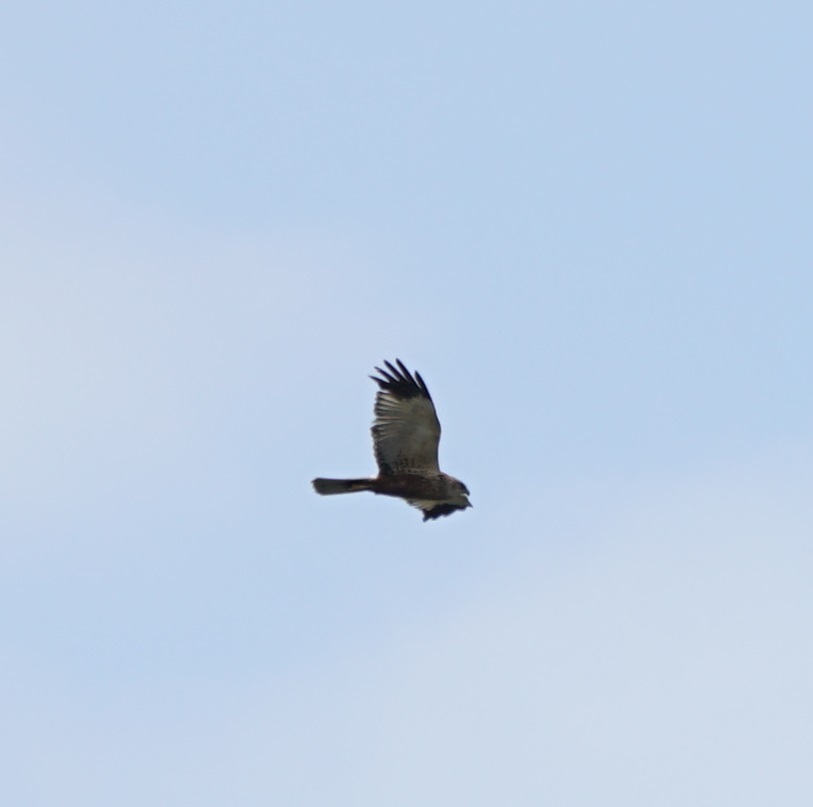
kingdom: Animalia
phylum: Chordata
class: Aves
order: Accipitriformes
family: Accipitridae
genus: Circus
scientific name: Circus aeruginosus
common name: Western marsh harrier
